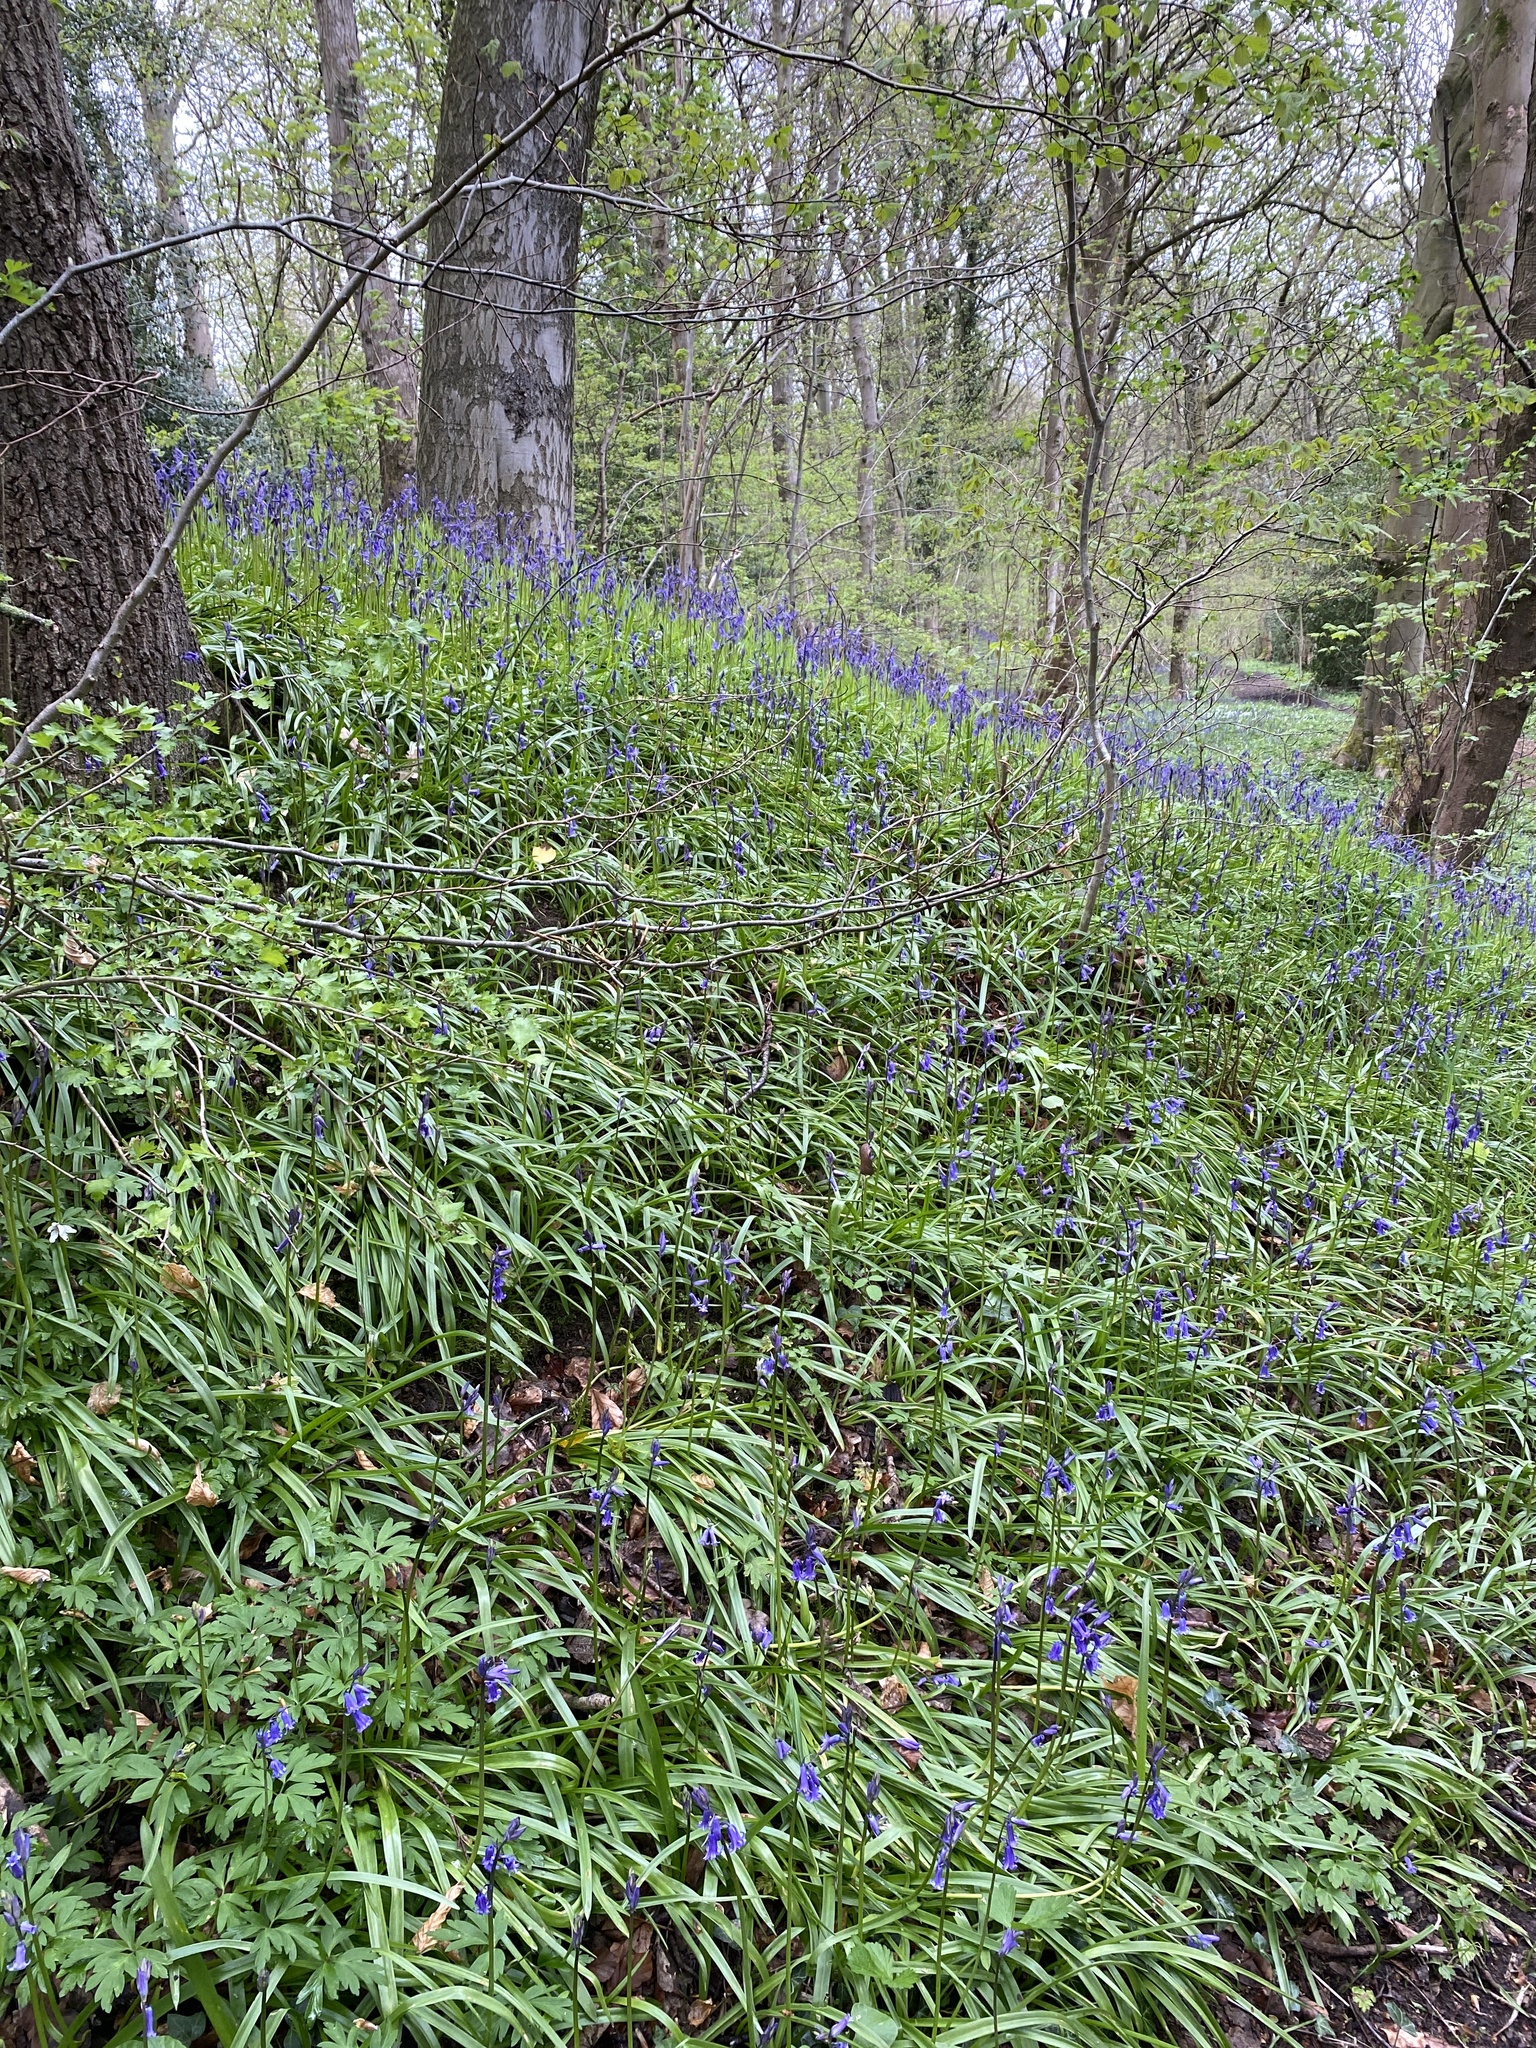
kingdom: Plantae
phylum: Tracheophyta
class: Liliopsida
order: Asparagales
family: Asparagaceae
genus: Hyacinthoides
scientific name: Hyacinthoides non-scripta
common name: Bluebell
